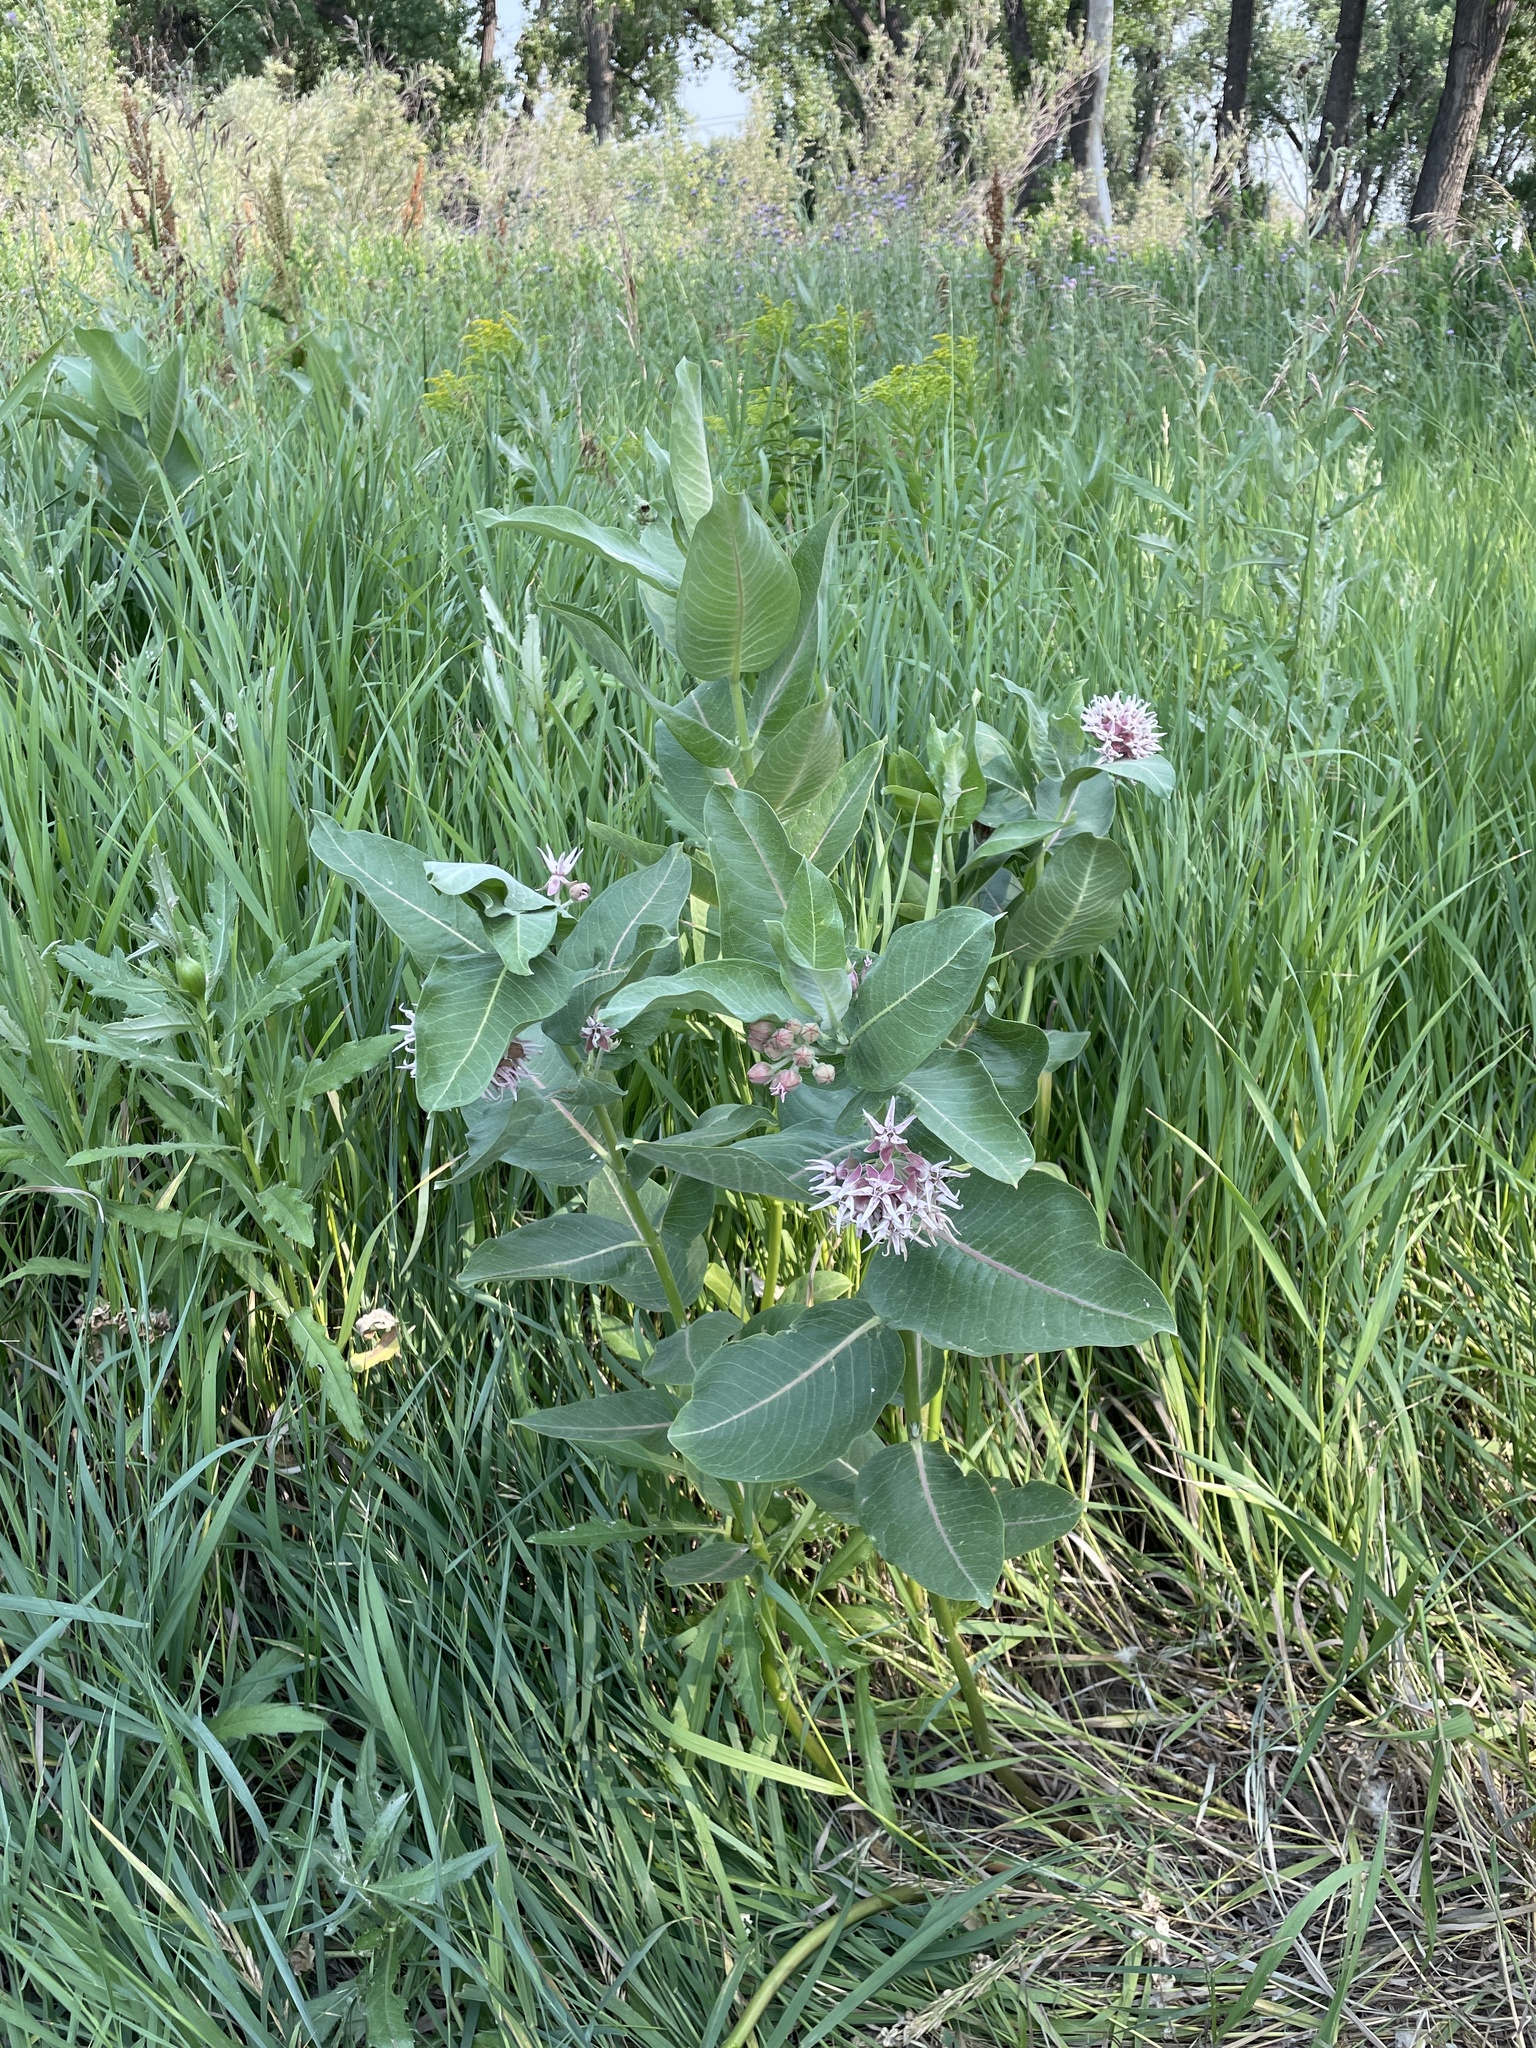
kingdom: Plantae
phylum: Tracheophyta
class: Magnoliopsida
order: Gentianales
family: Apocynaceae
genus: Asclepias
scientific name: Asclepias speciosa
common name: Showy milkweed
